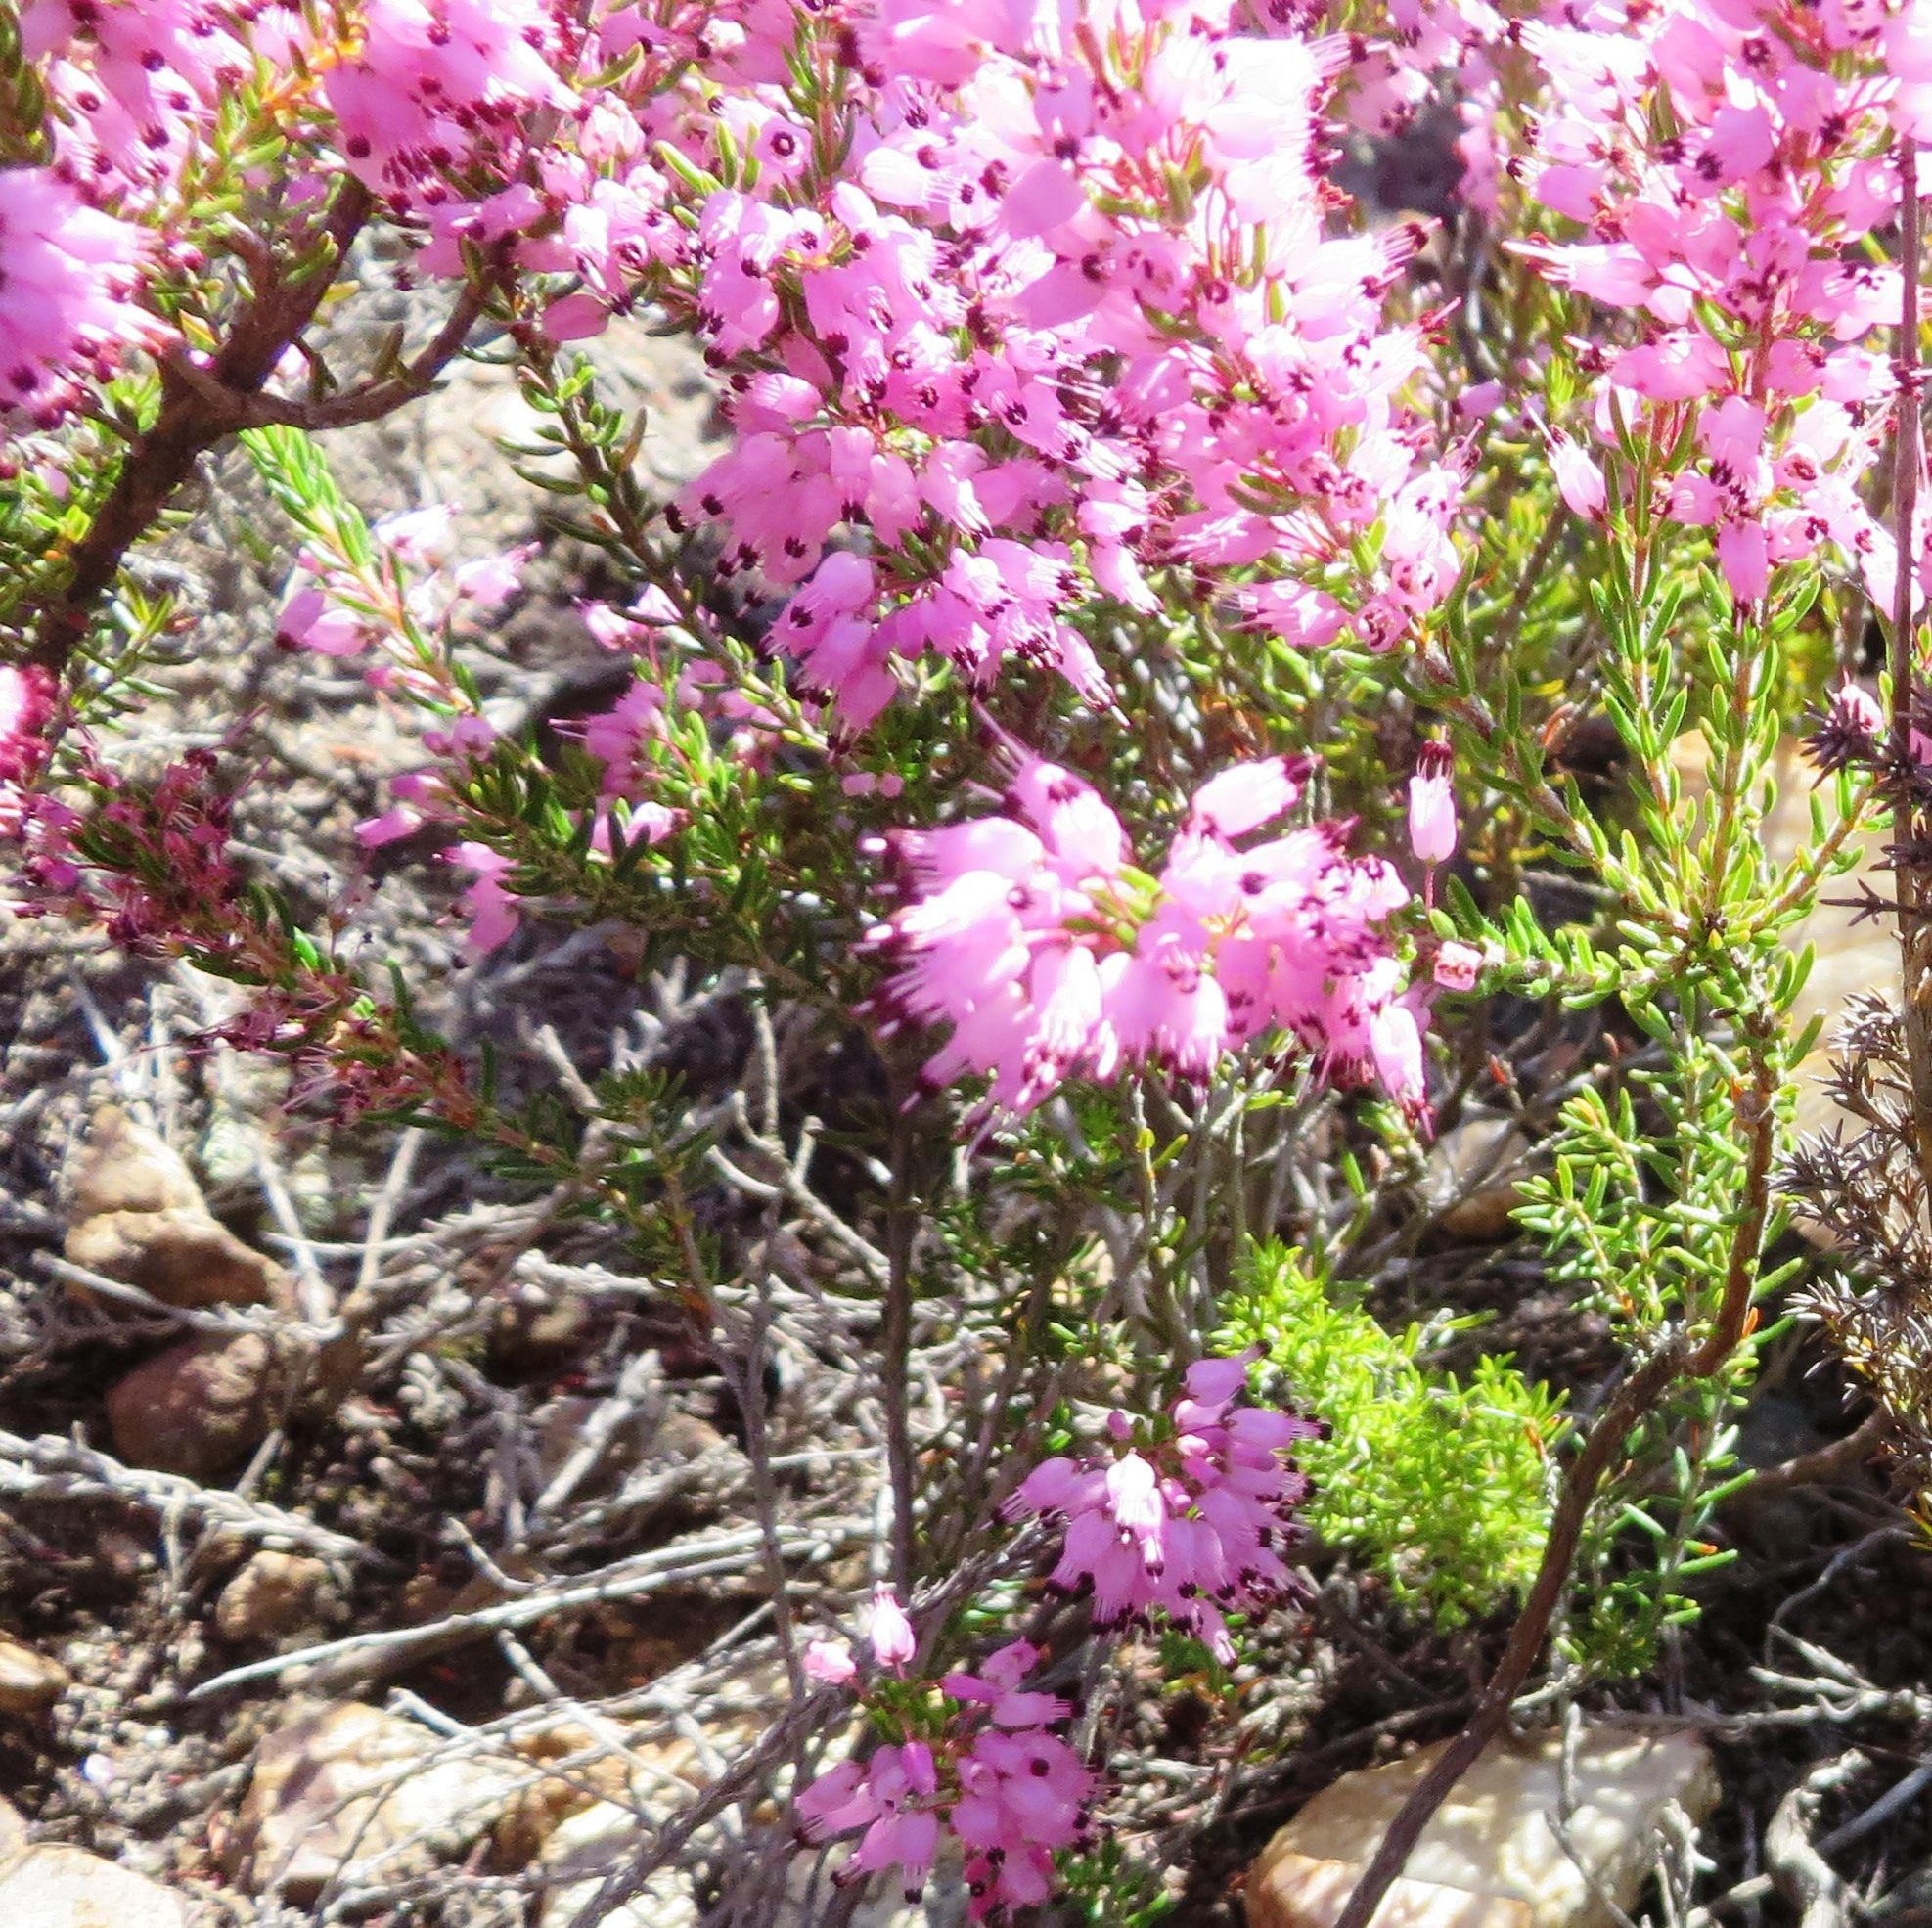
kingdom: Plantae
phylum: Tracheophyta
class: Magnoliopsida
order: Ericales
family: Ericaceae
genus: Erica
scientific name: Erica nudiflora
